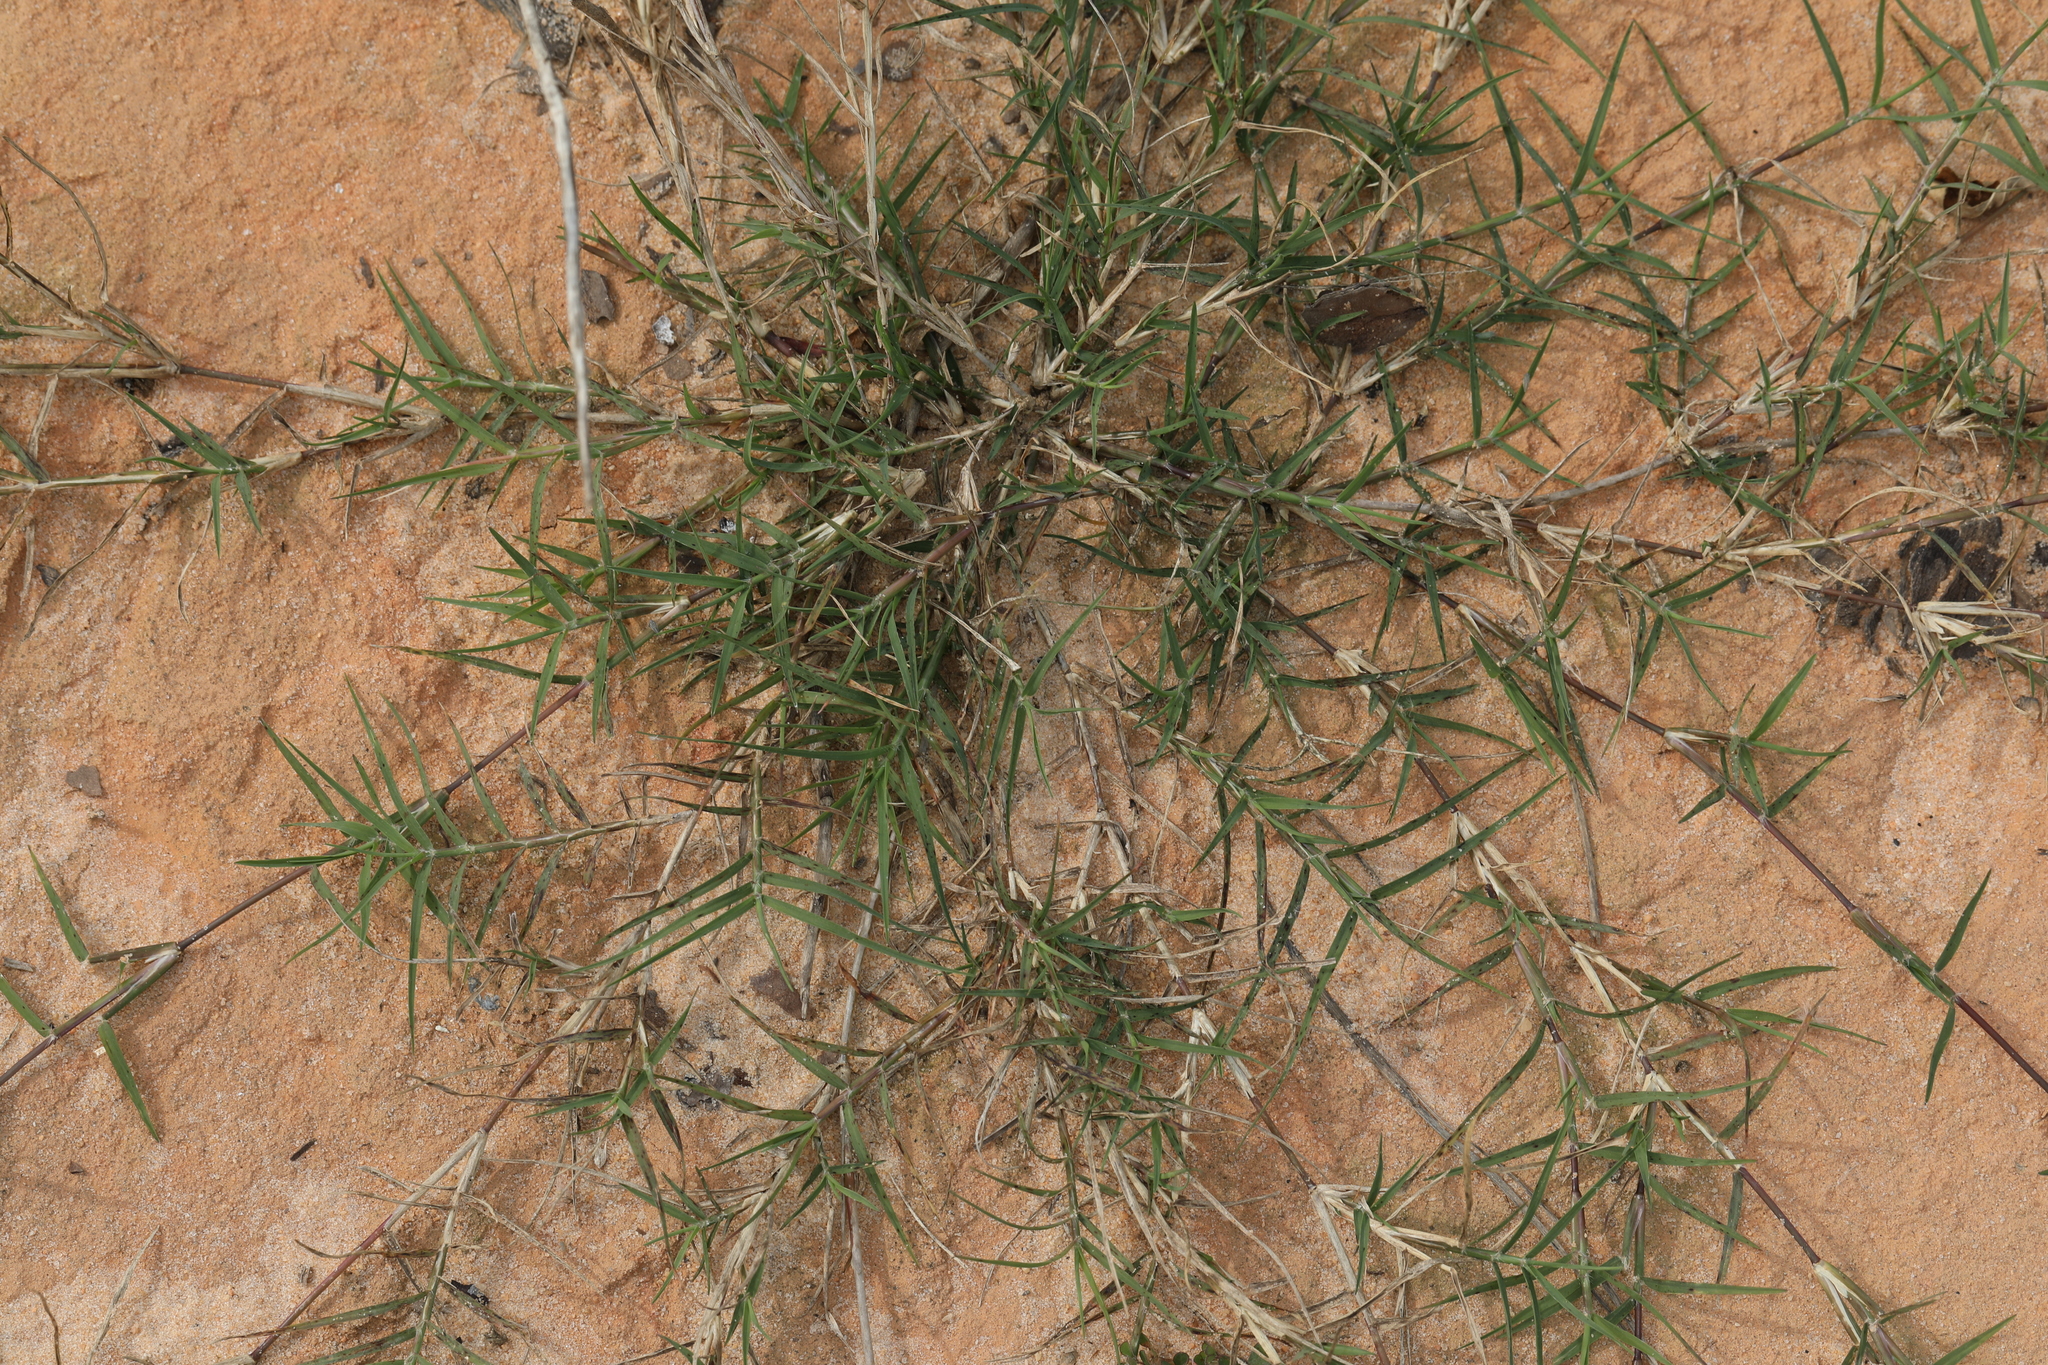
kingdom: Plantae
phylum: Tracheophyta
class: Liliopsida
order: Poales
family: Poaceae
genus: Cynodon
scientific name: Cynodon dactylon
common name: Bermuda grass
